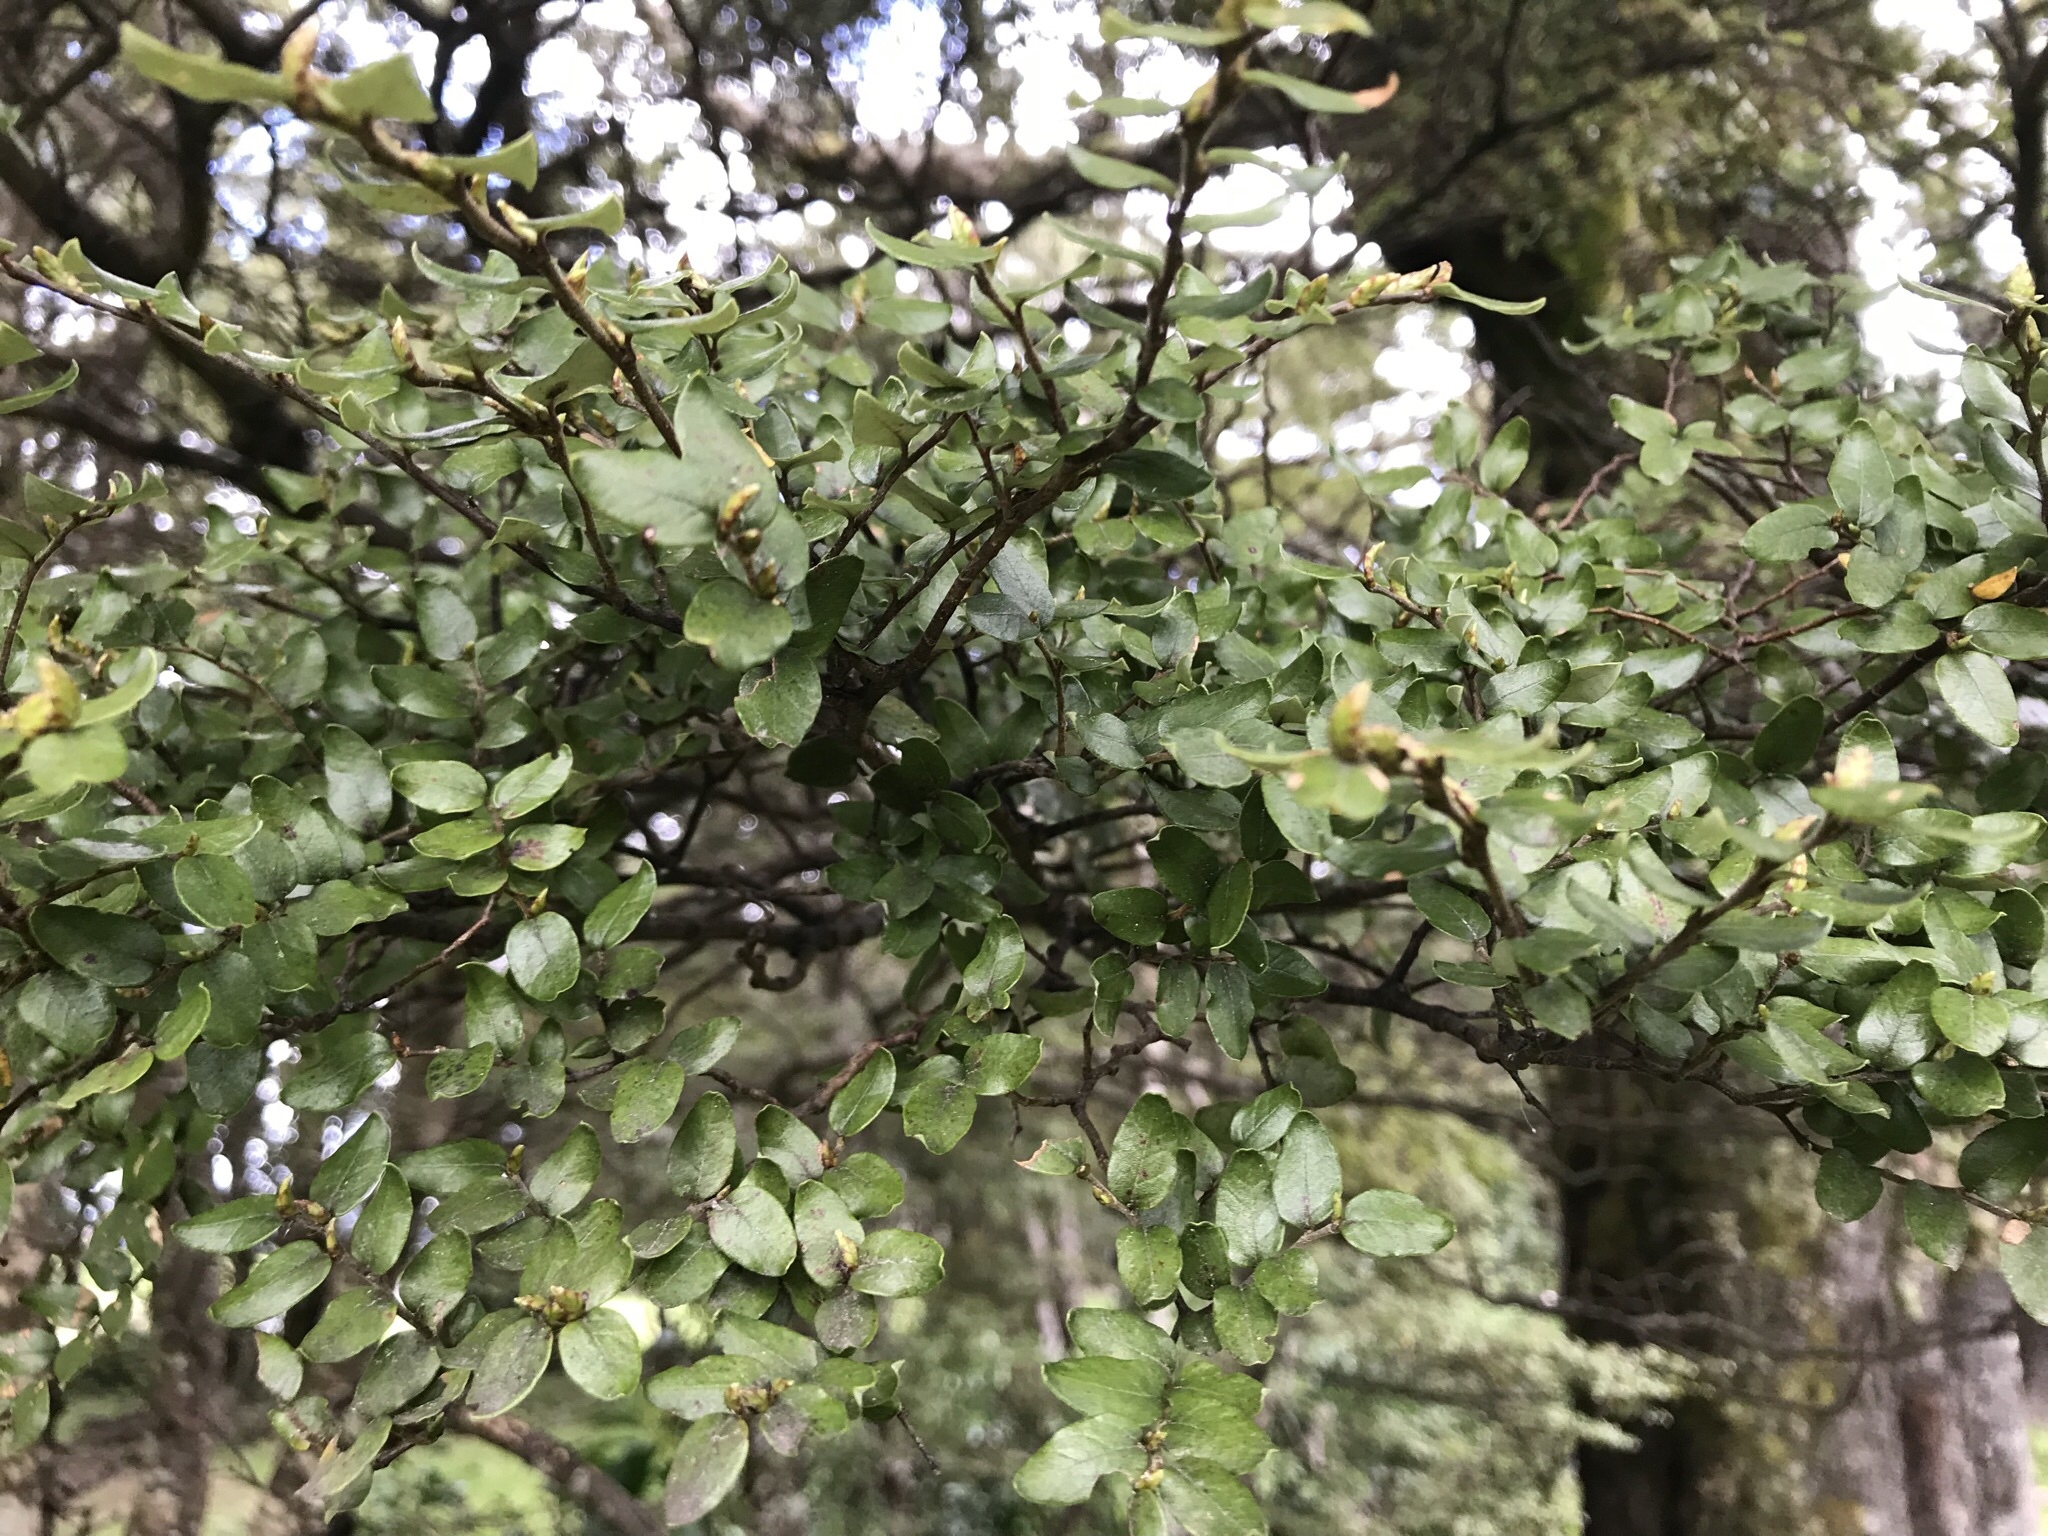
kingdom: Plantae
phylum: Tracheophyta
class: Magnoliopsida
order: Fagales
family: Nothofagaceae
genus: Nothofagus
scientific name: Nothofagus cliffortioides
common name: Mountain beech
